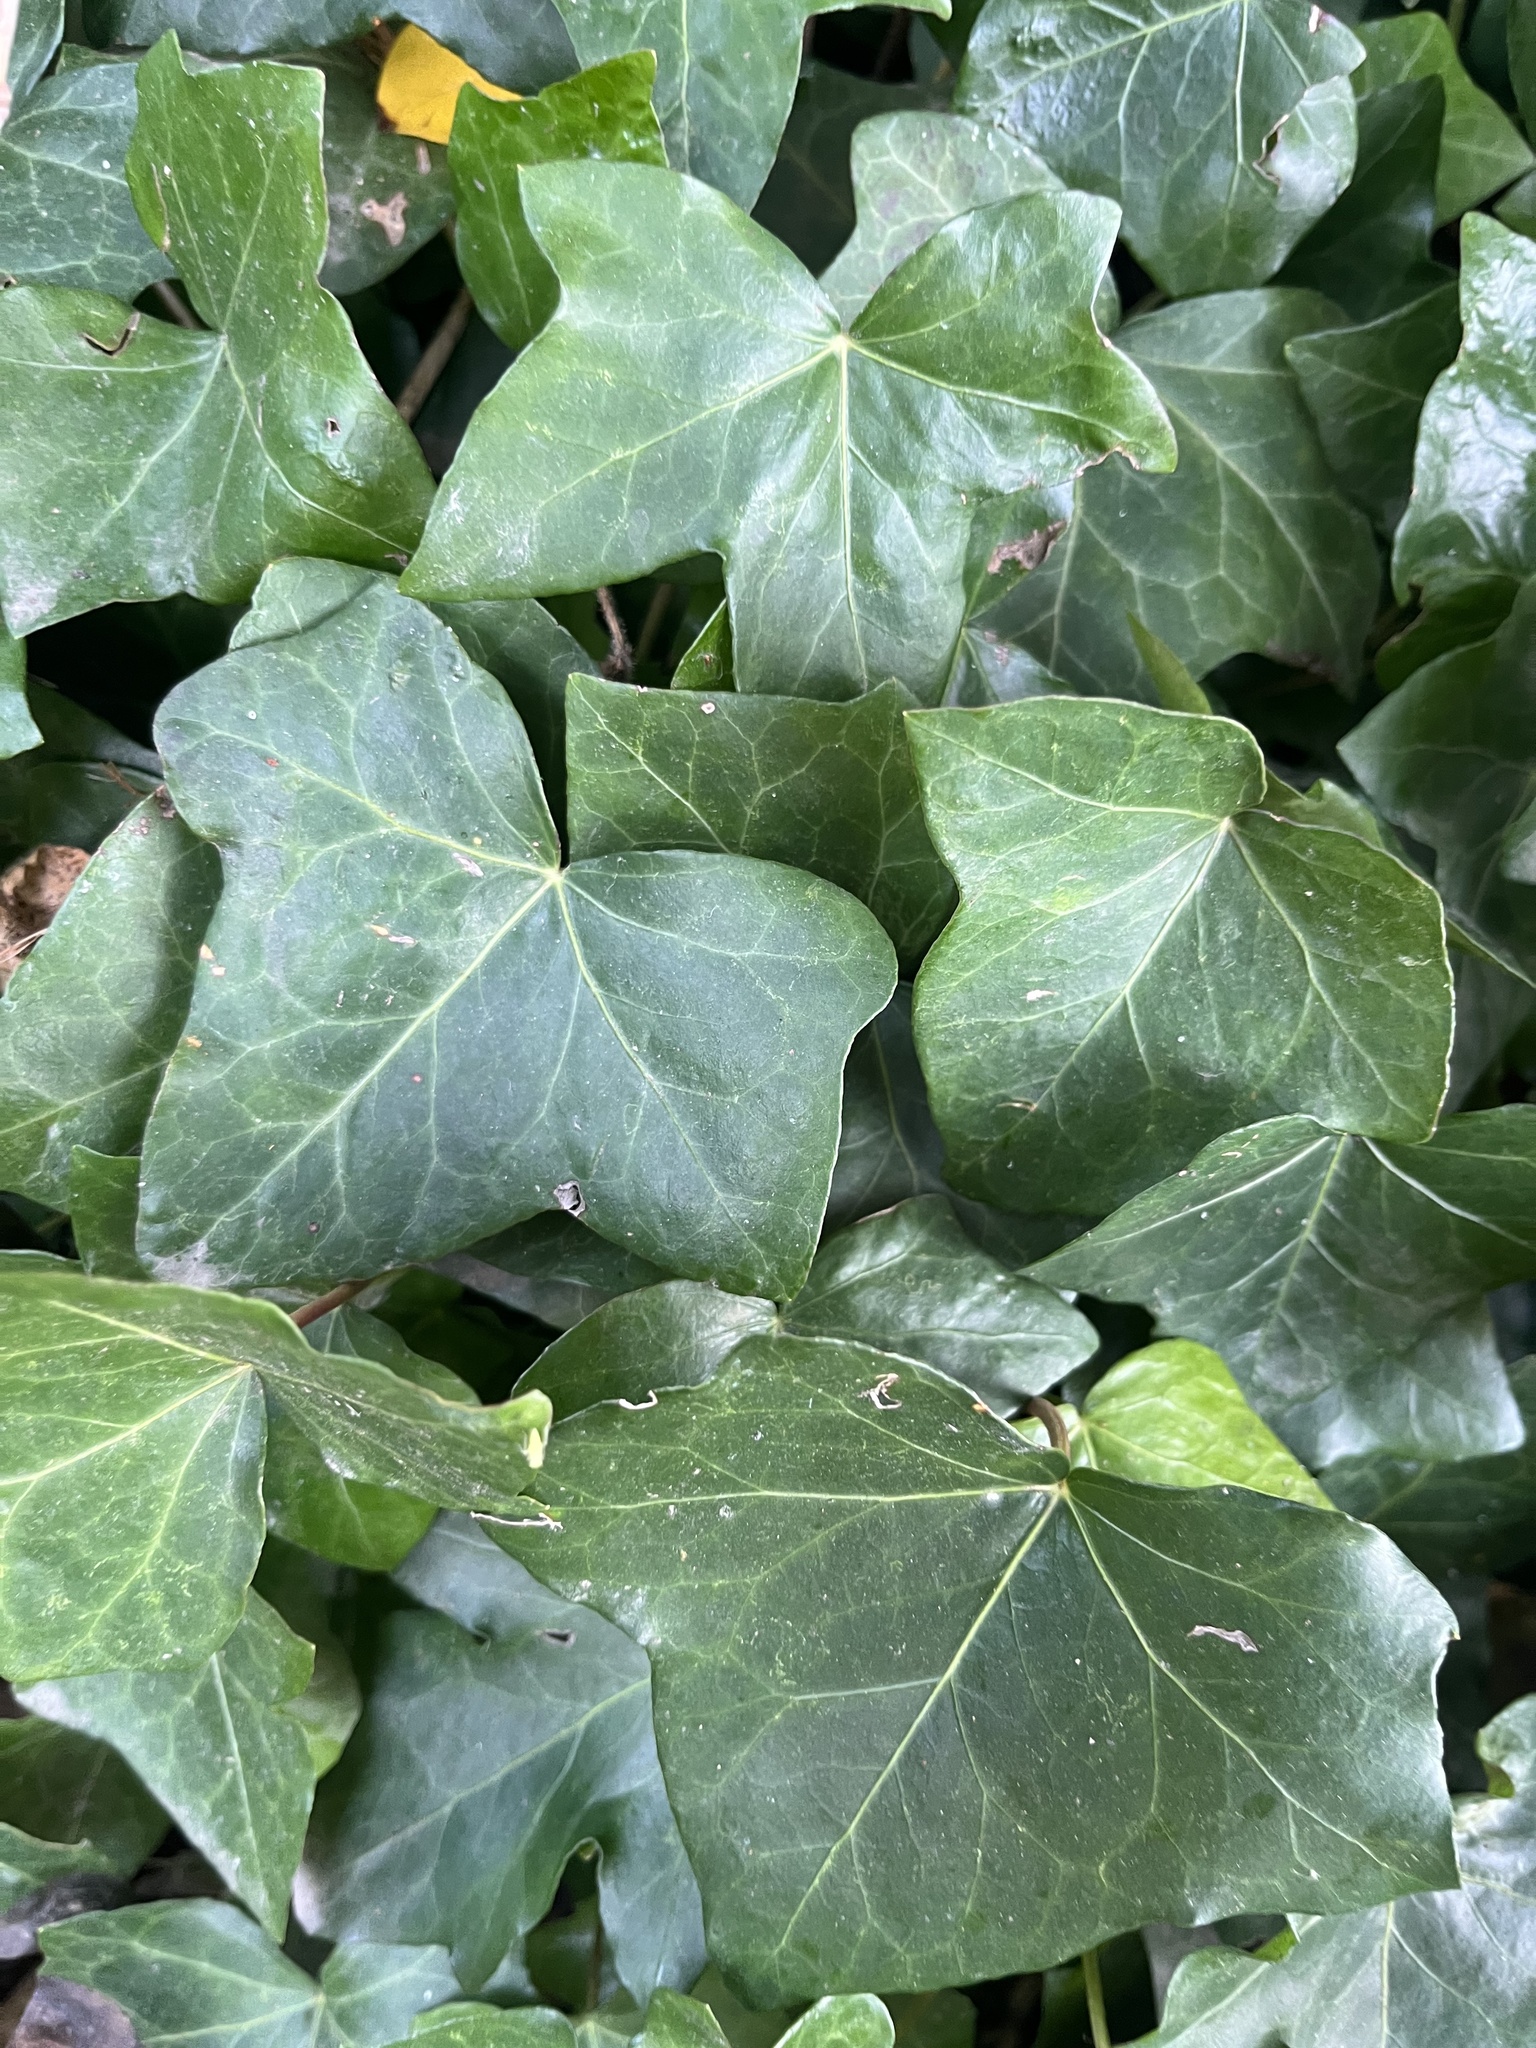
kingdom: Plantae
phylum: Tracheophyta
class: Magnoliopsida
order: Apiales
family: Araliaceae
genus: Hedera
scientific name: Hedera helix
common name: Ivy
